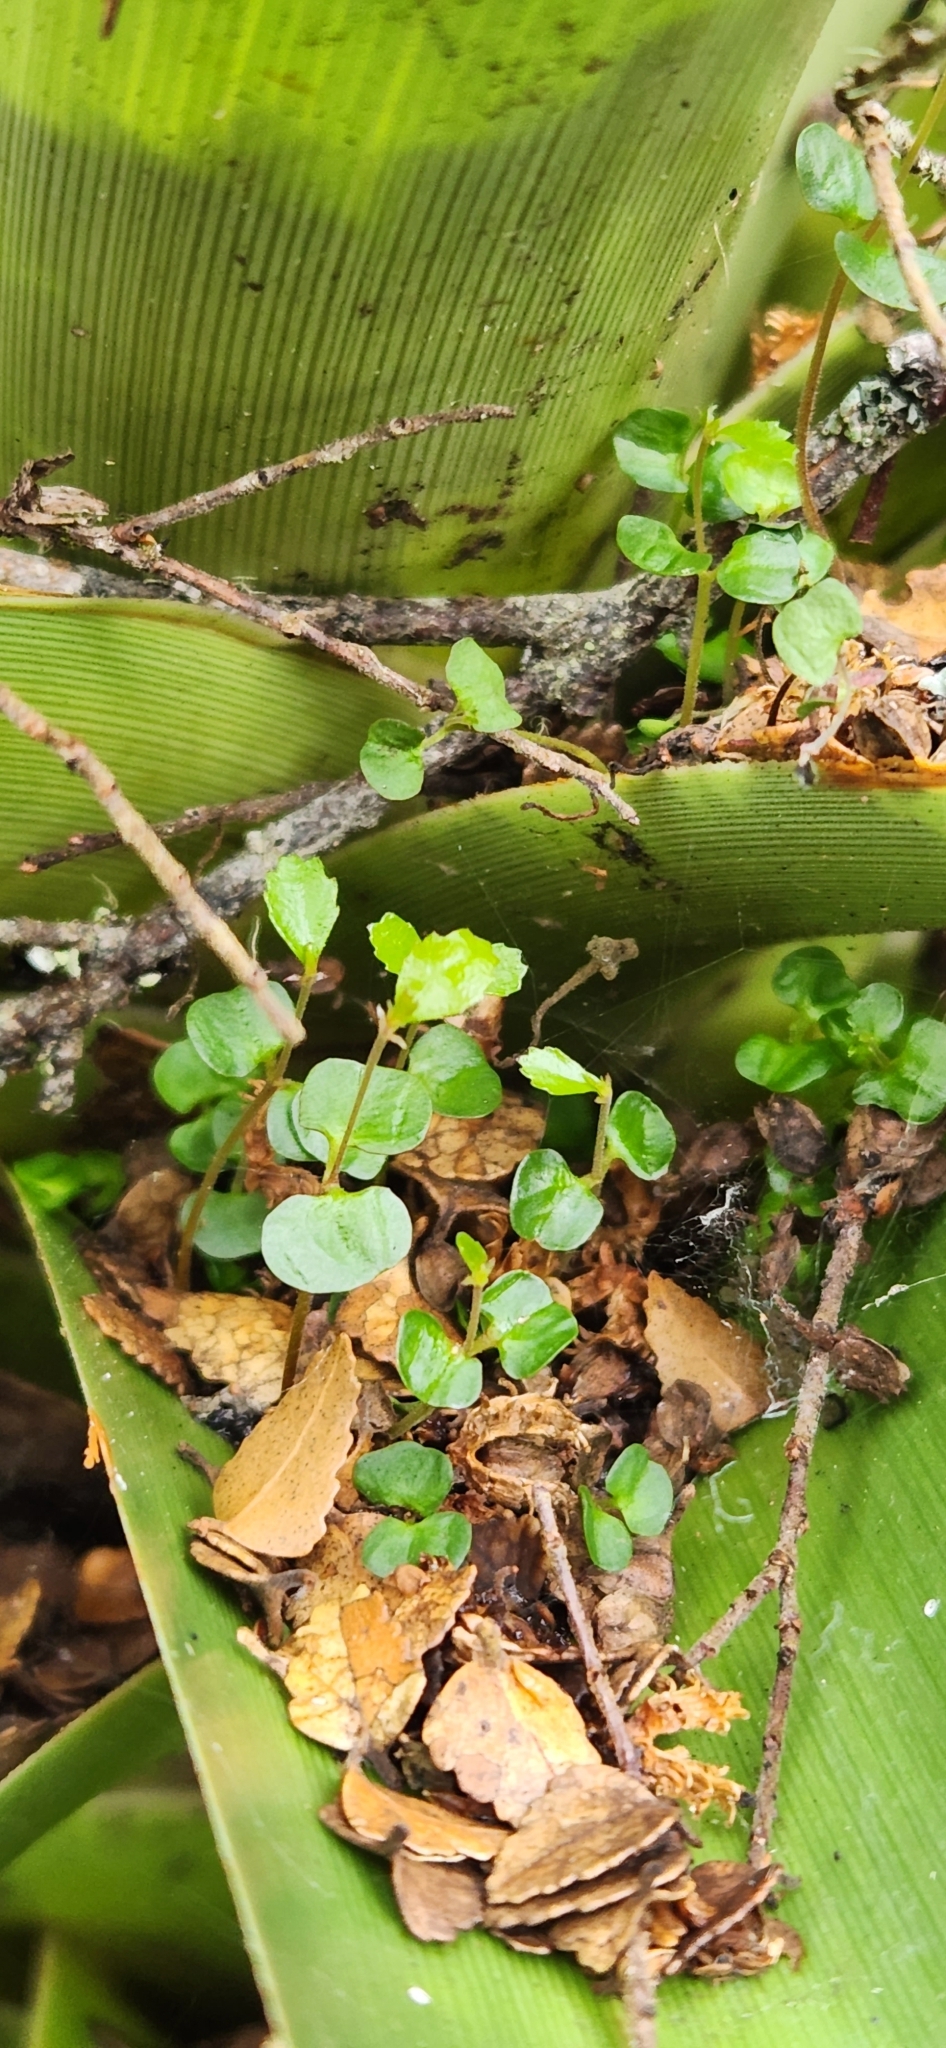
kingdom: Plantae
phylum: Tracheophyta
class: Magnoliopsida
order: Fagales
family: Nothofagaceae
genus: Nothofagus
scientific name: Nothofagus cunninghamii
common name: Myrtle beech
